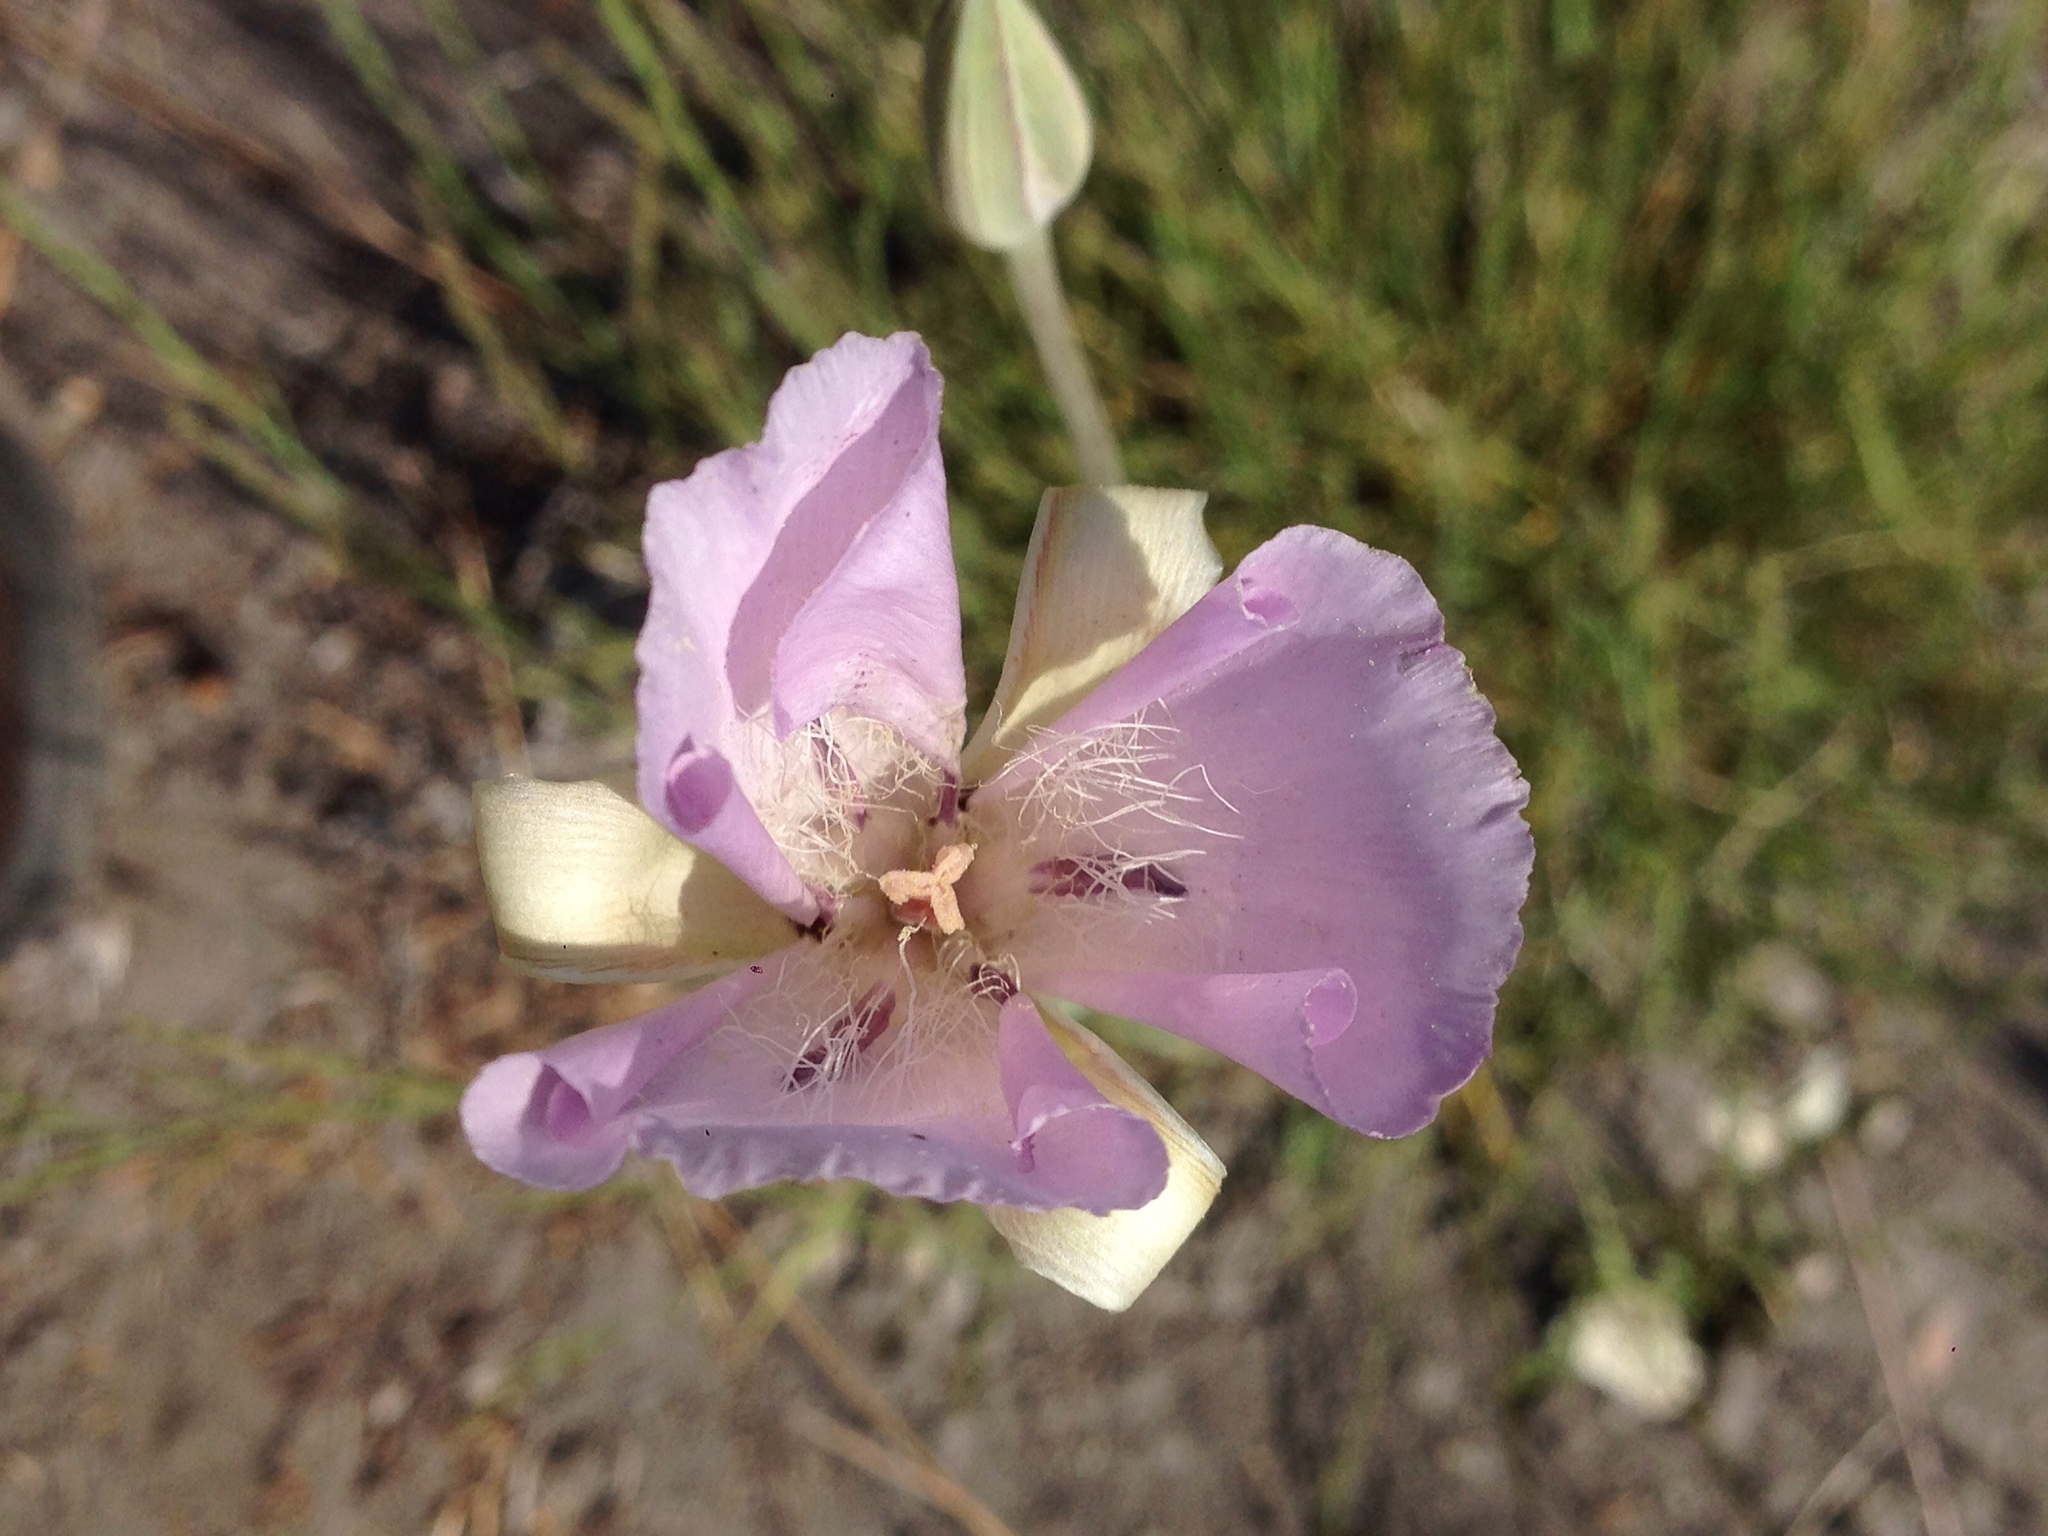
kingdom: Plantae
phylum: Tracheophyta
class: Liliopsida
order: Liliales
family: Liliaceae
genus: Calochortus
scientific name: Calochortus splendens
